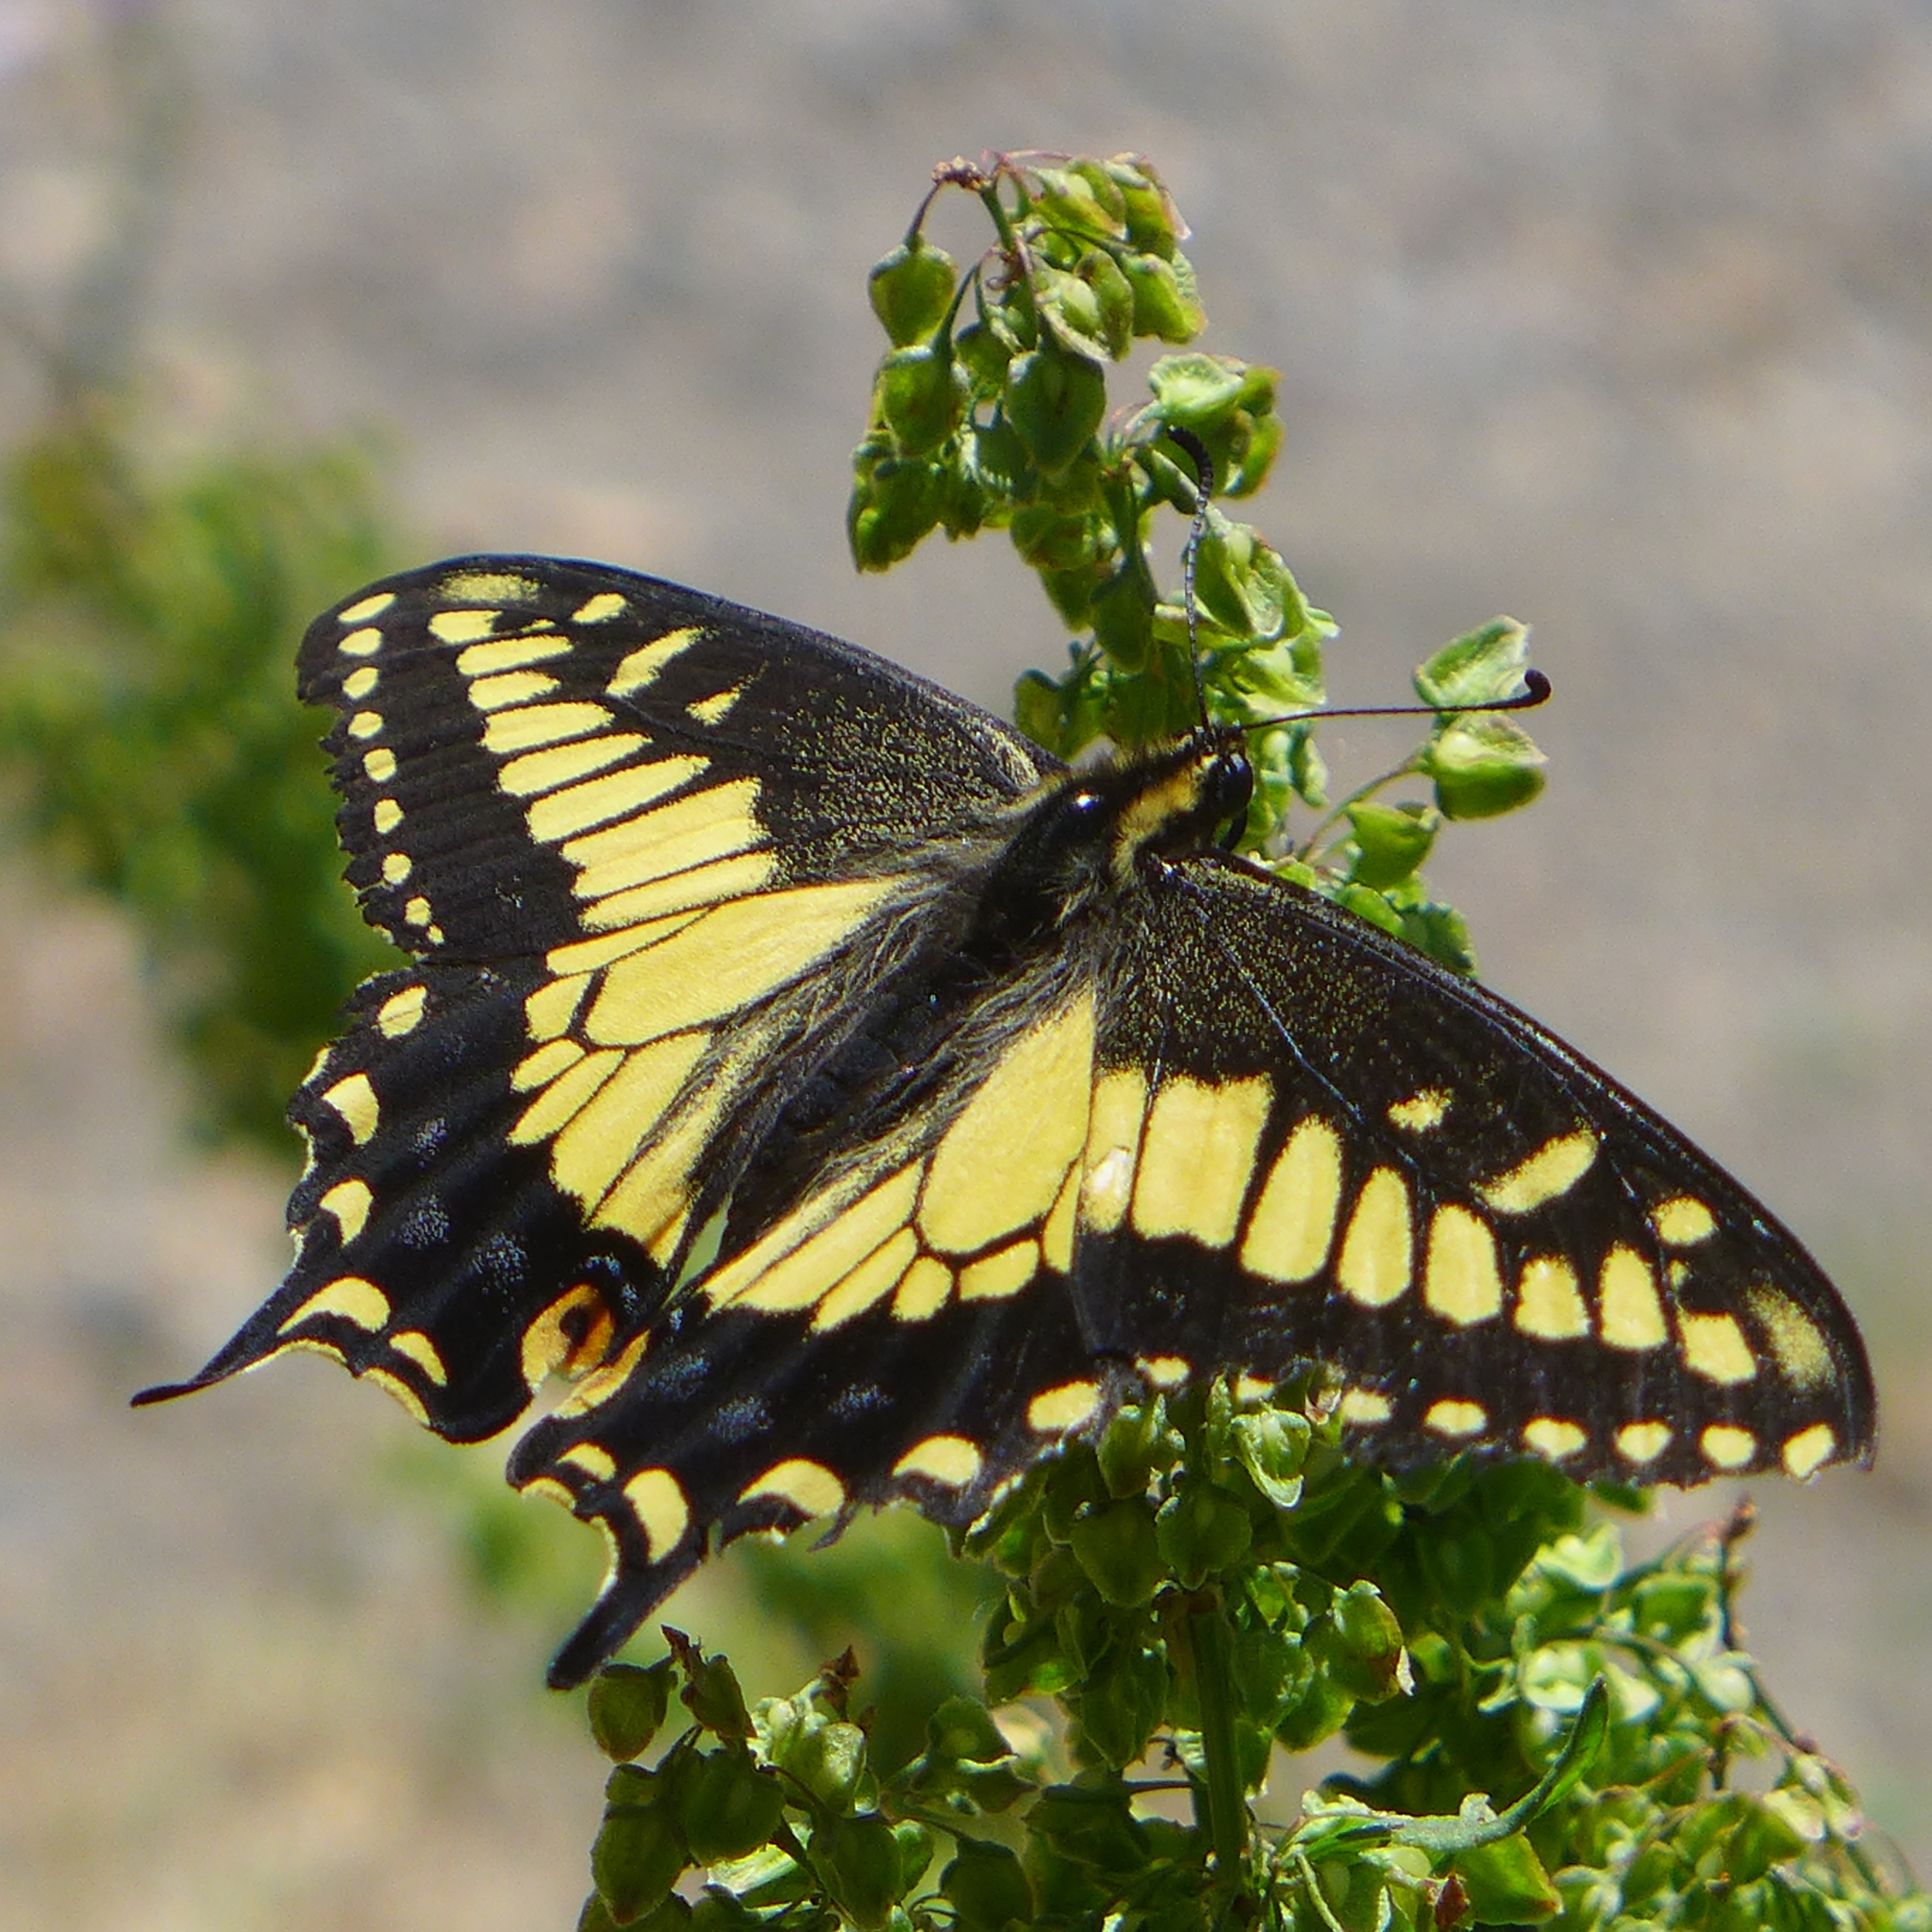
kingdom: Animalia
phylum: Arthropoda
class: Insecta
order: Lepidoptera
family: Papilionidae
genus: Papilio
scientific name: Papilio zelicaon
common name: Anise swallowtail
